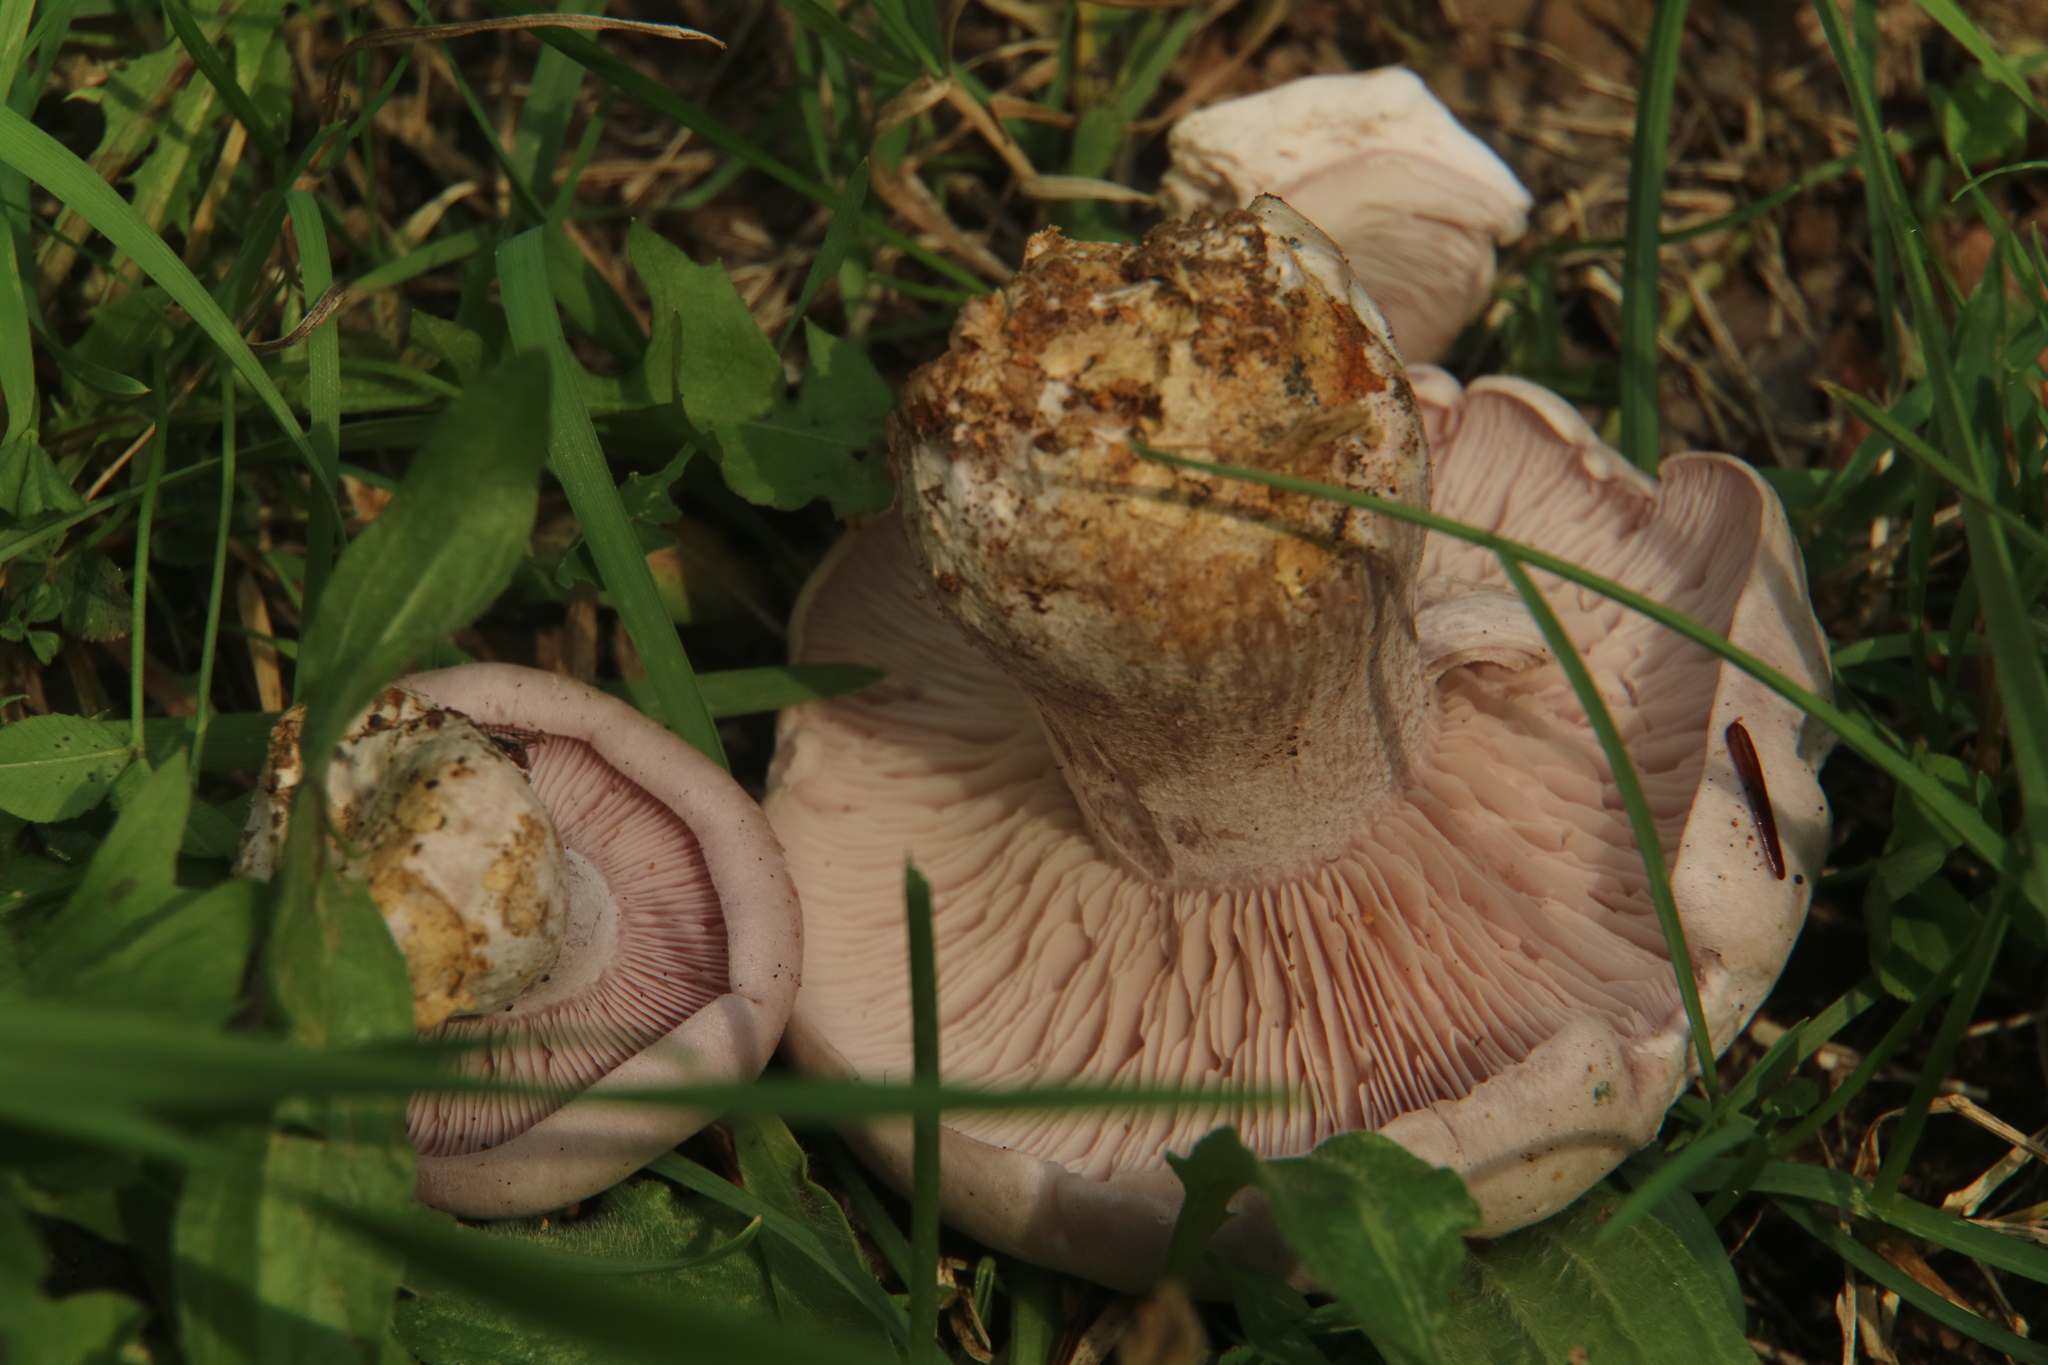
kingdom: Fungi
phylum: Basidiomycota
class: Agaricomycetes
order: Agaricales
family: Tricholomataceae
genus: Collybia
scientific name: Collybia
